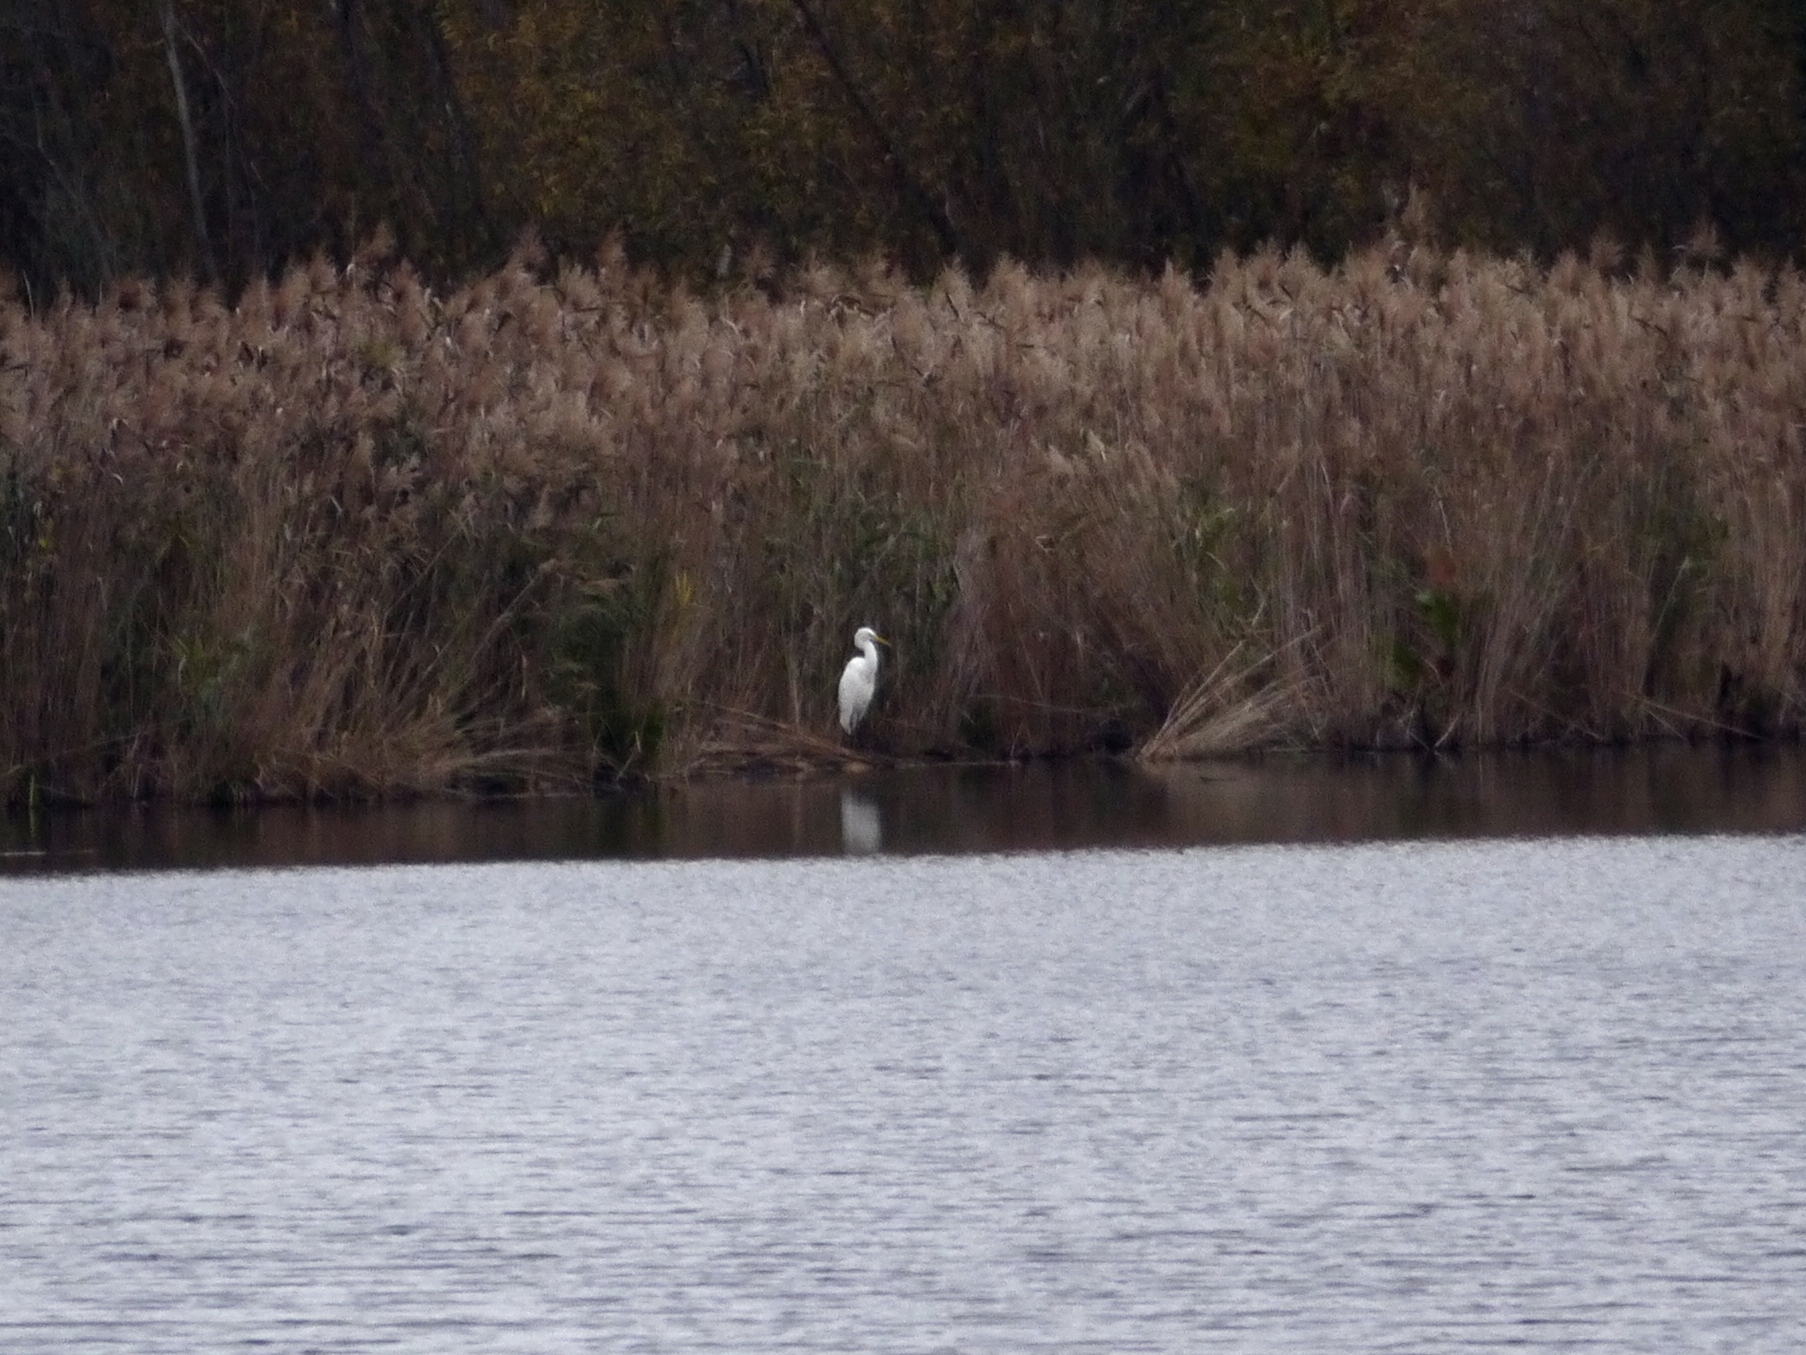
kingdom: Animalia
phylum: Chordata
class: Aves
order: Pelecaniformes
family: Ardeidae
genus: Ardea
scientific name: Ardea alba
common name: Great egret
